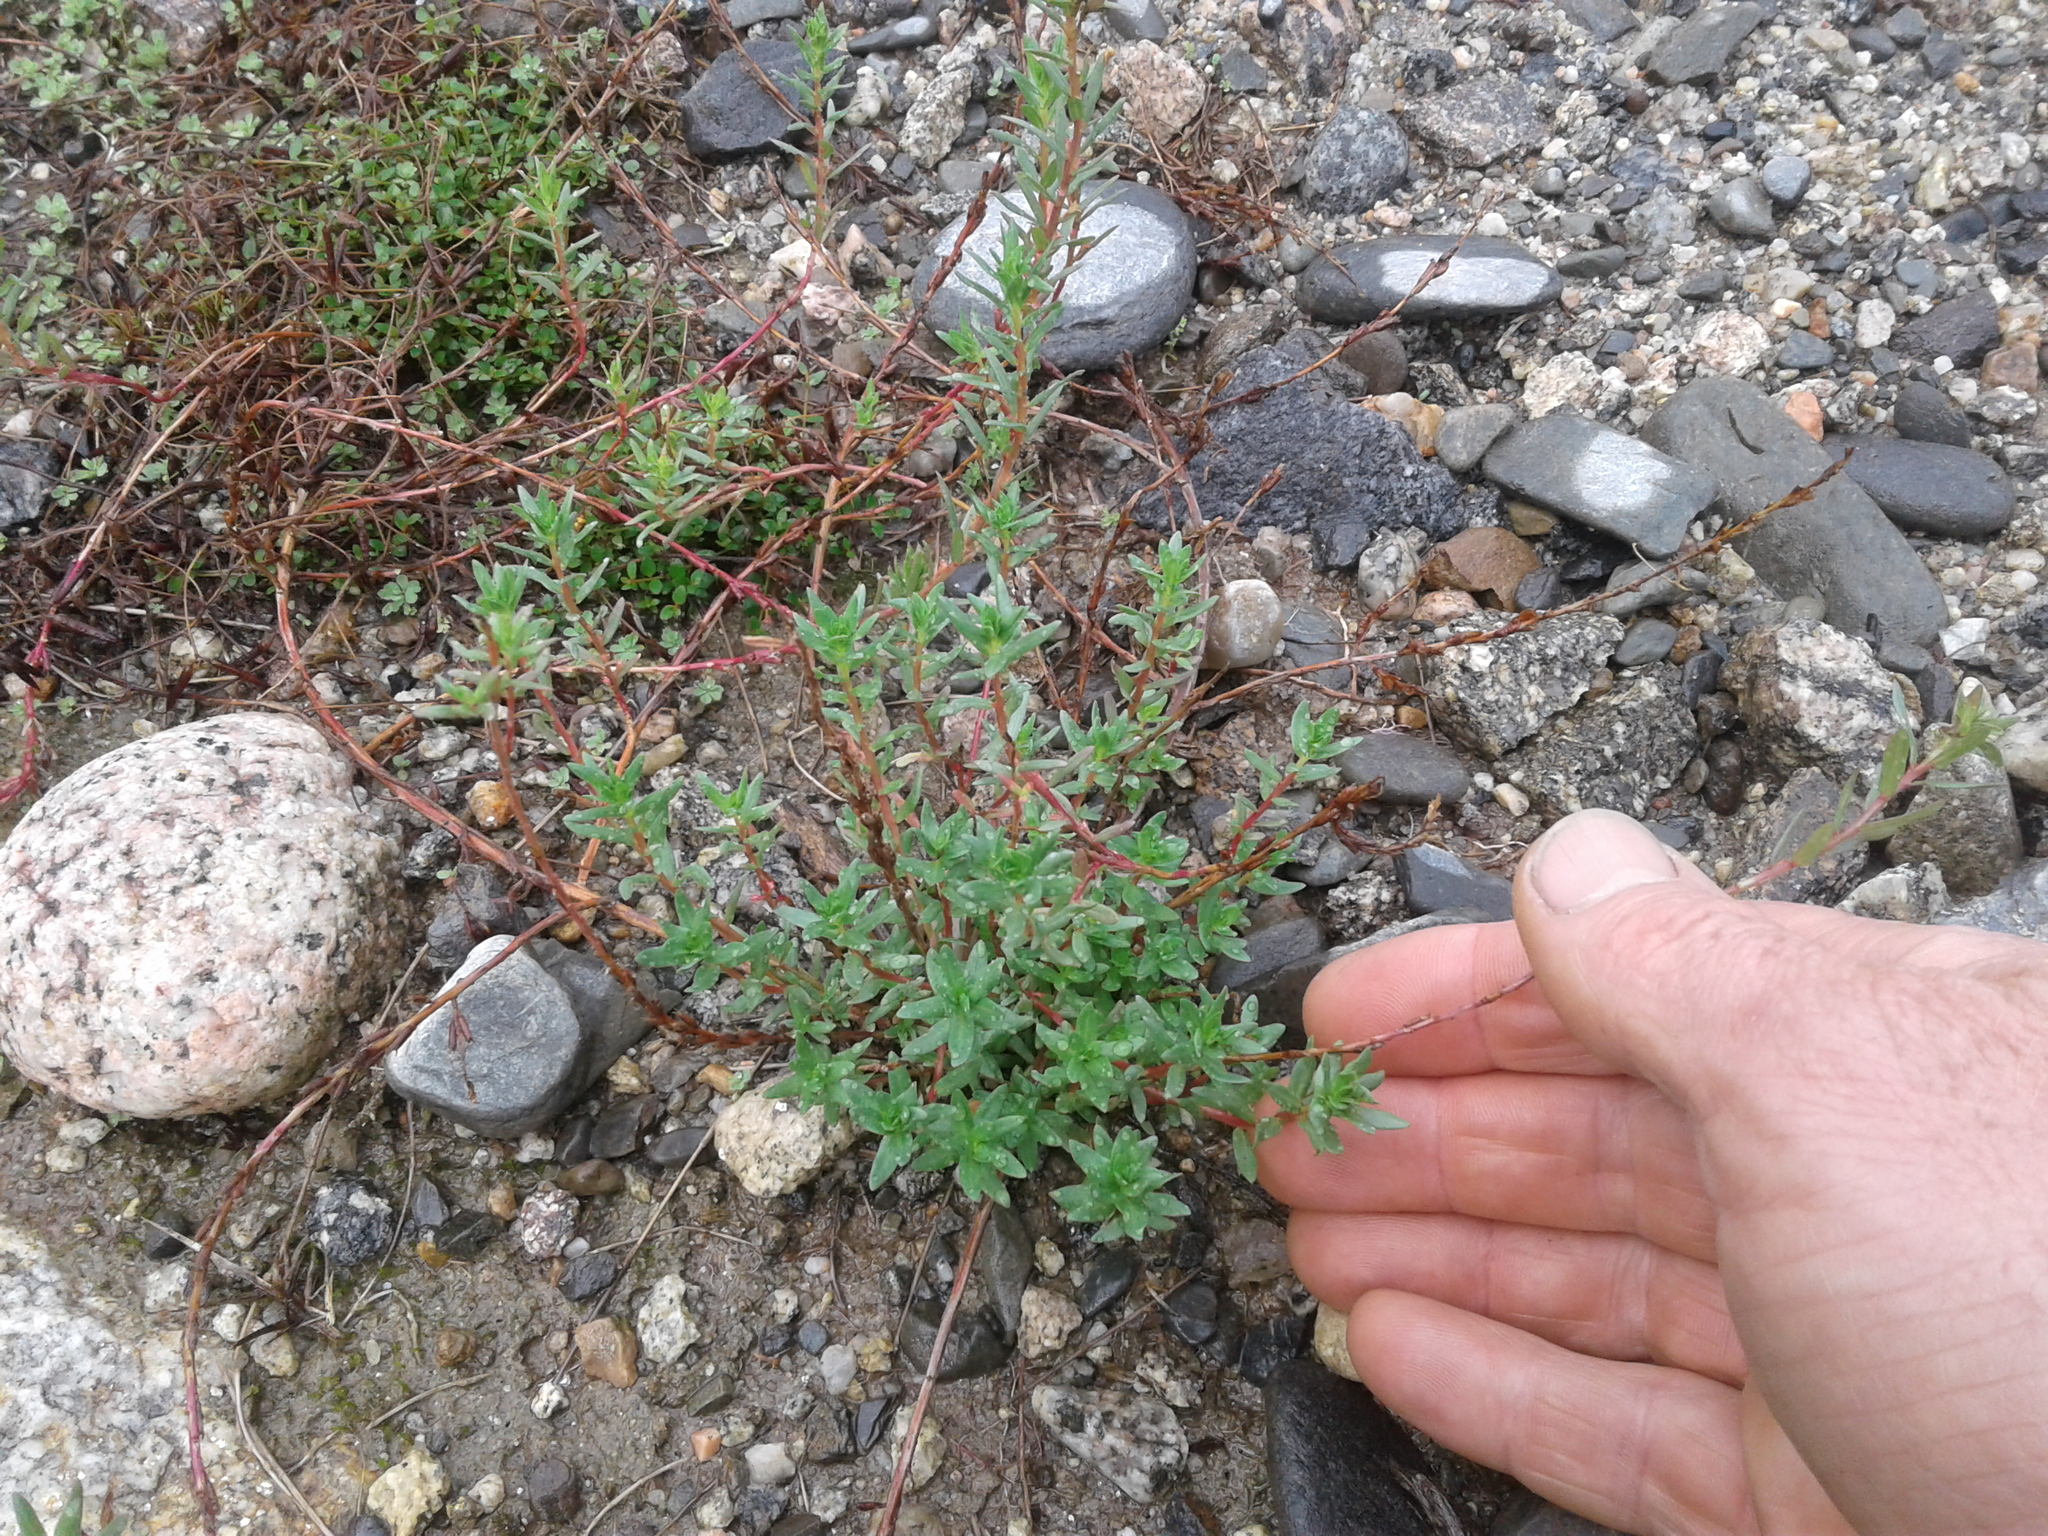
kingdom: Plantae
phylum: Tracheophyta
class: Magnoliopsida
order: Myrtales
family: Lythraceae
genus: Lythrum
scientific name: Lythrum hyssopifolia
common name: Grass-poly
